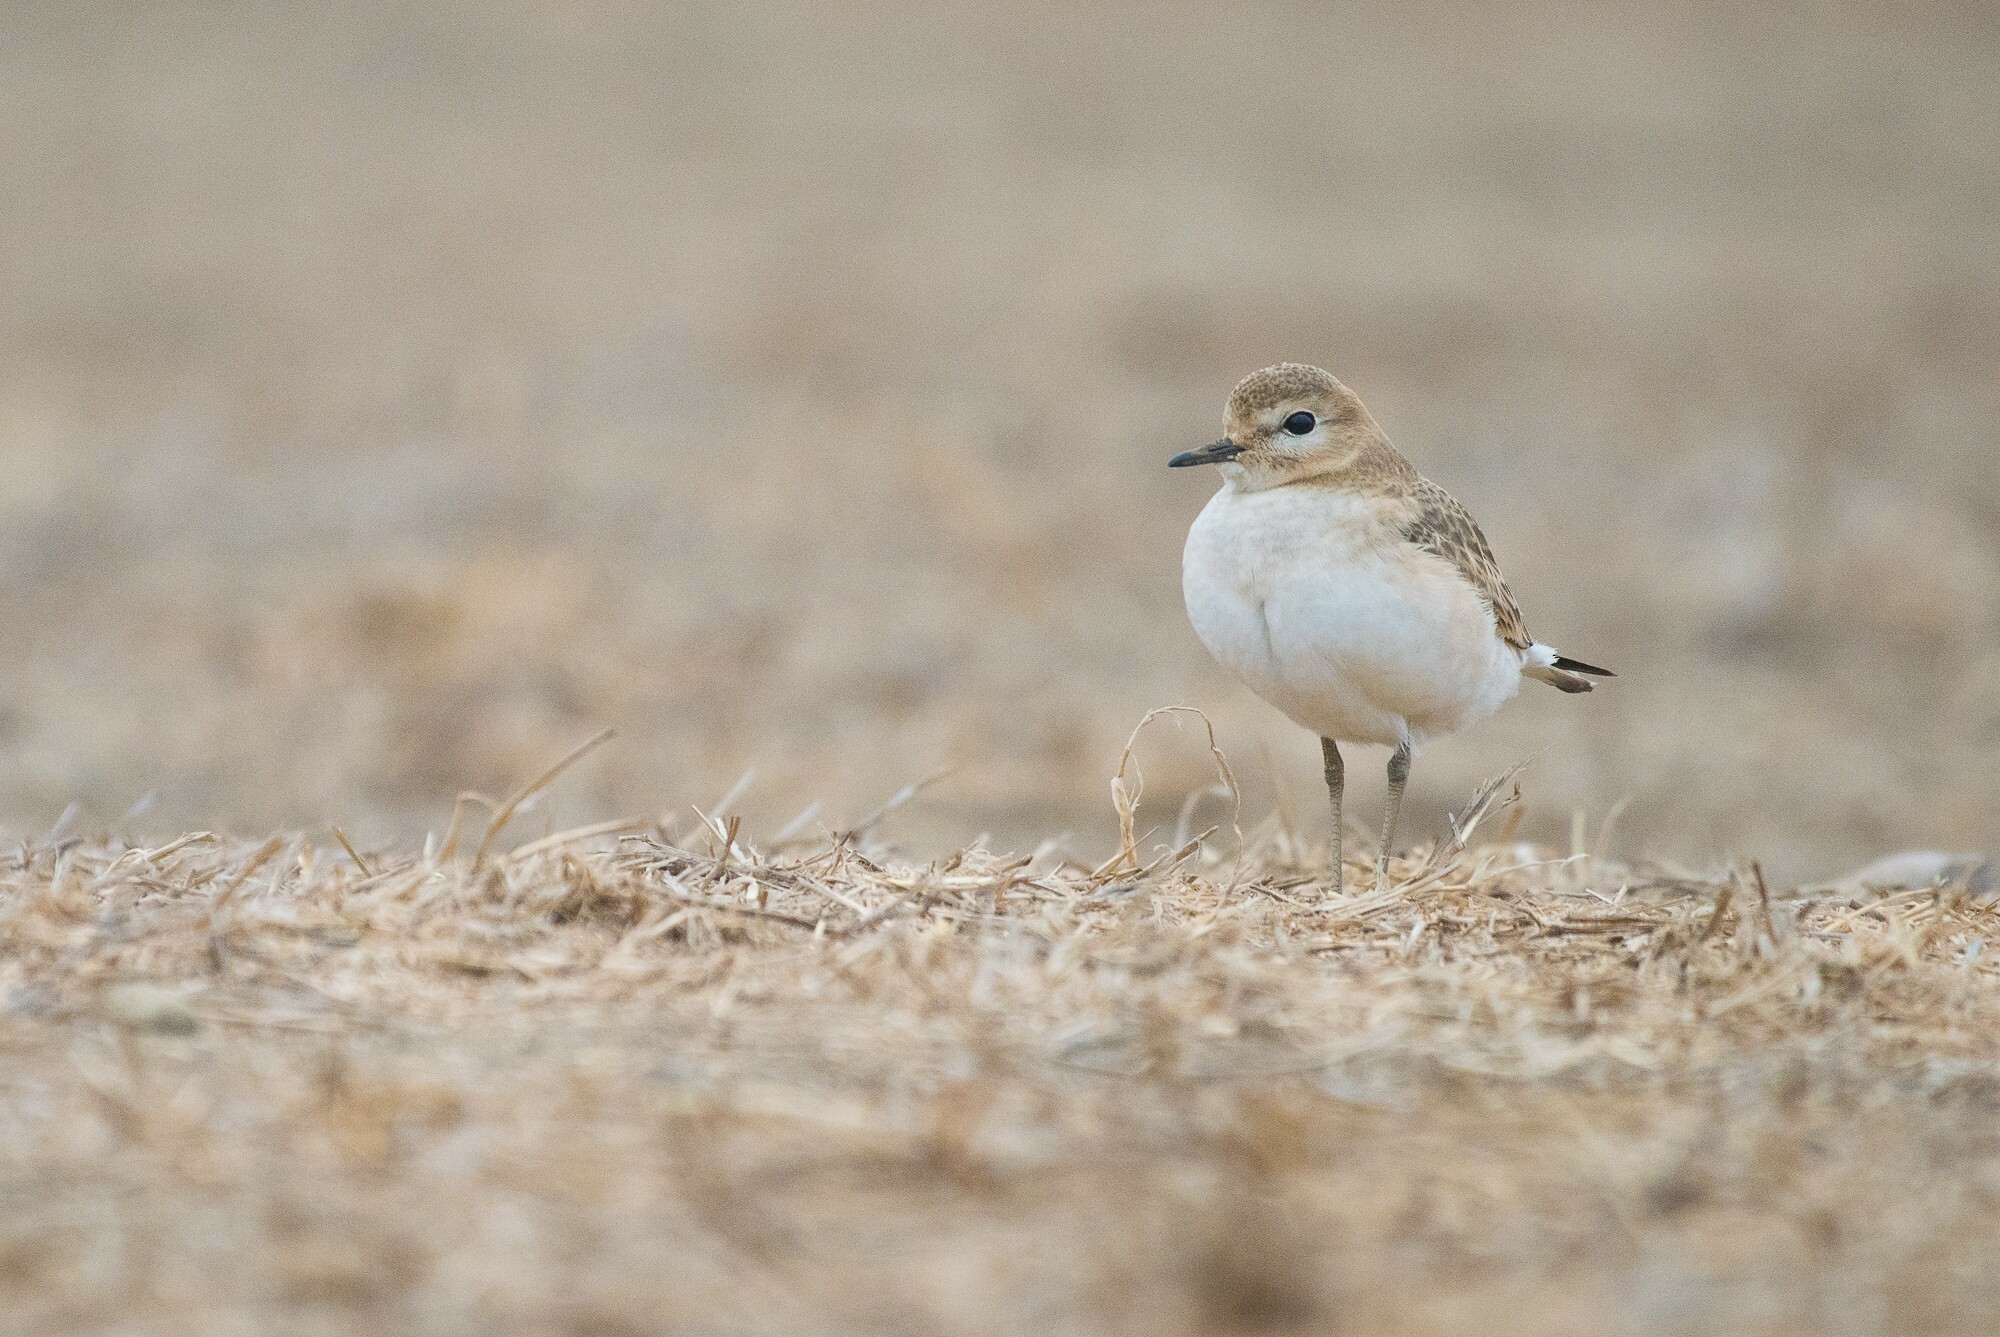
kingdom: Animalia
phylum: Chordata
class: Aves
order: Charadriiformes
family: Charadriidae
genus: Anarhynchus
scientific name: Anarhynchus
